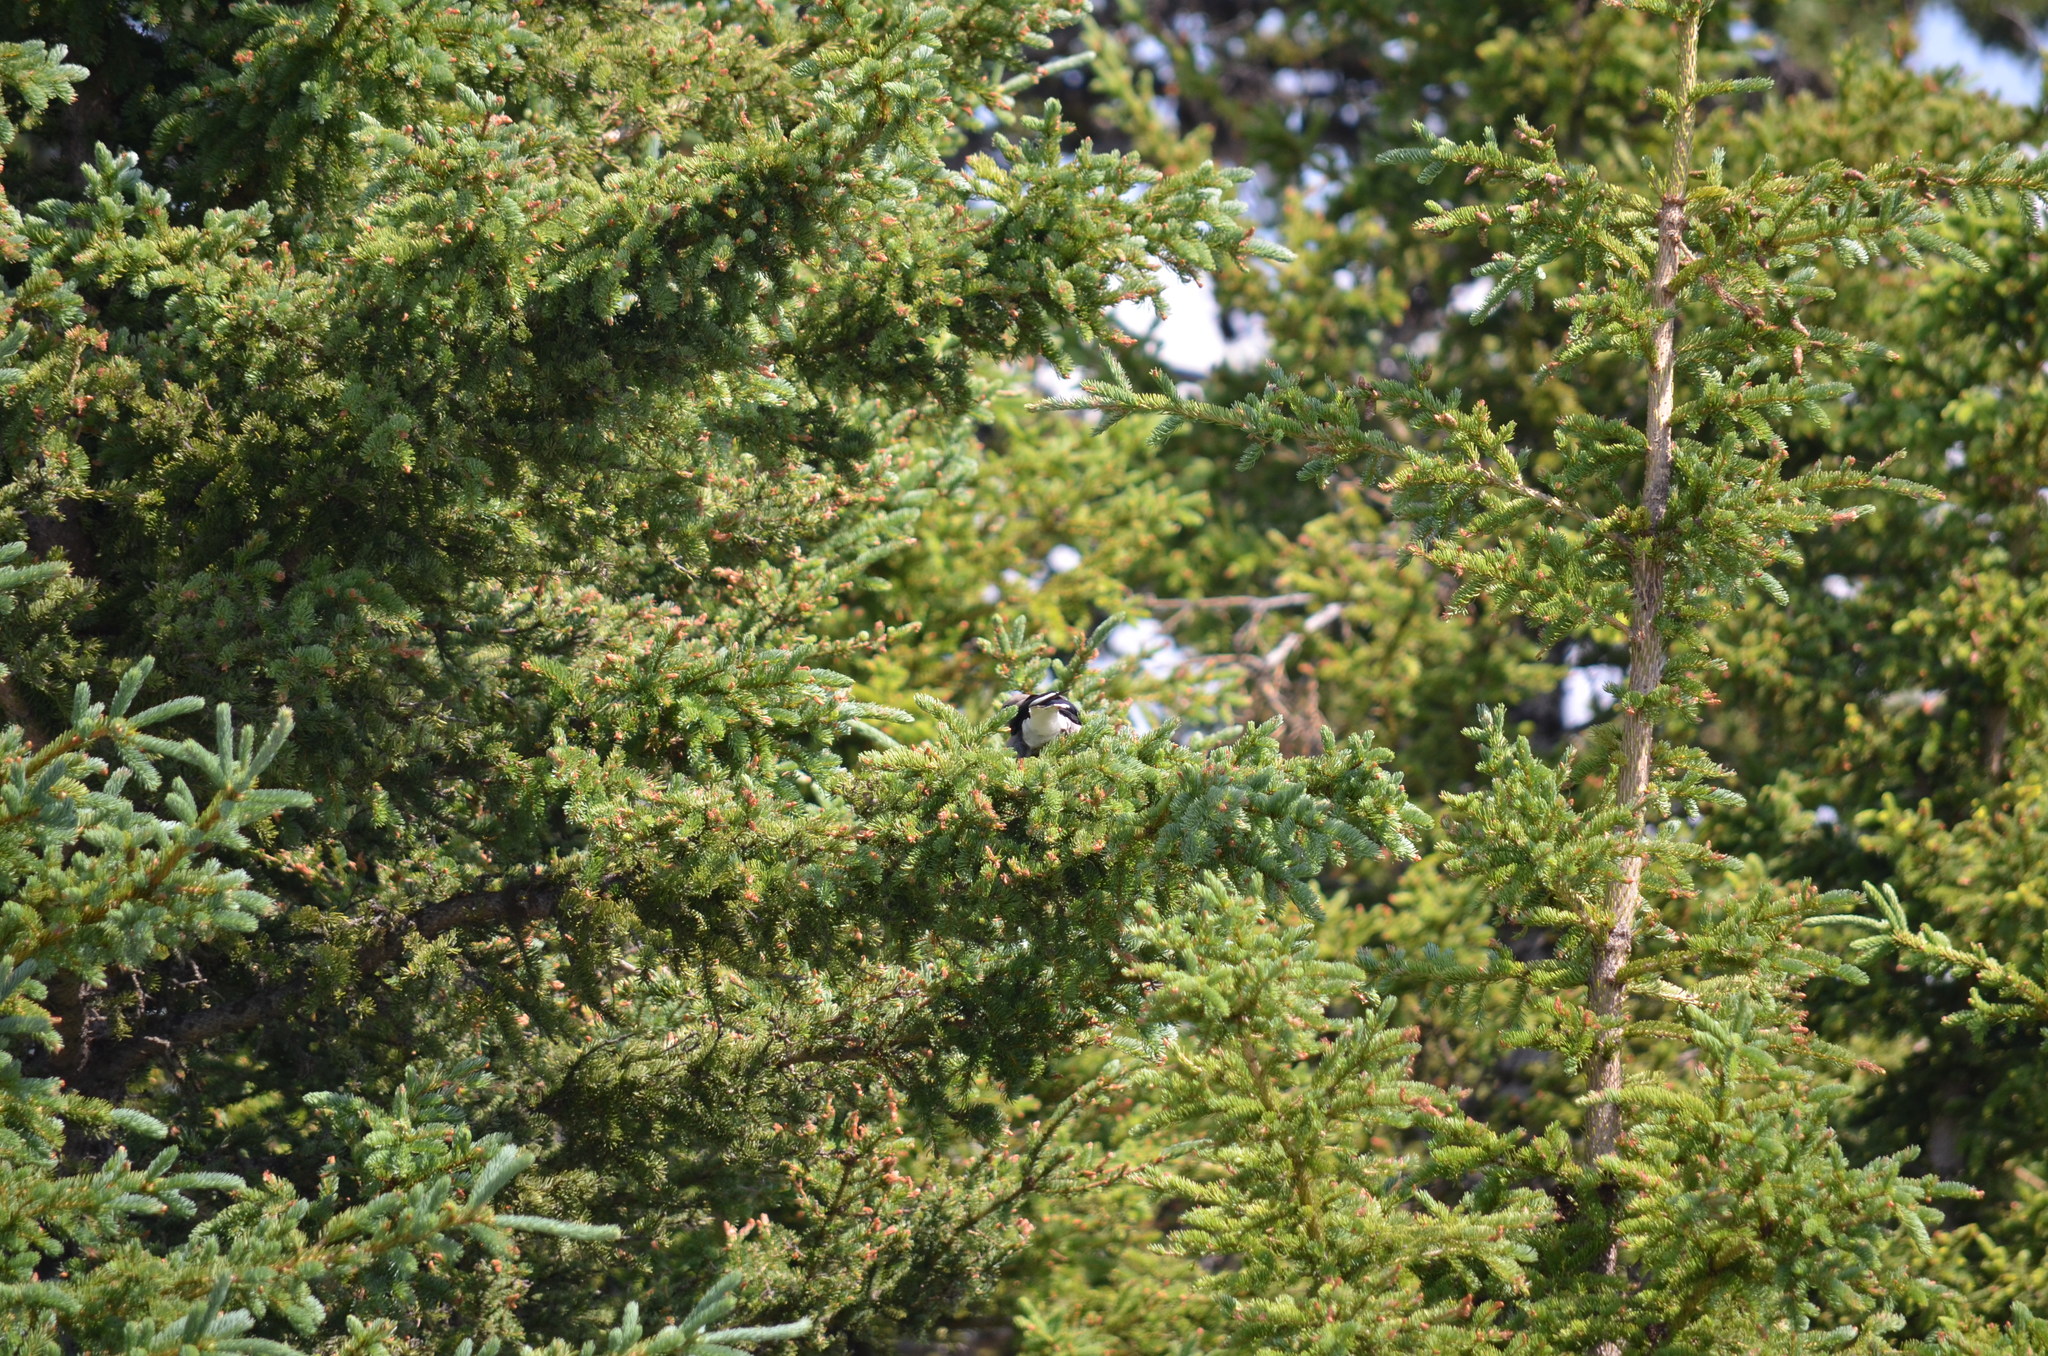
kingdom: Animalia
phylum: Chordata
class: Aves
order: Passeriformes
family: Corvidae
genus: Nucifraga
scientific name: Nucifraga columbiana
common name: Clark's nutcracker
